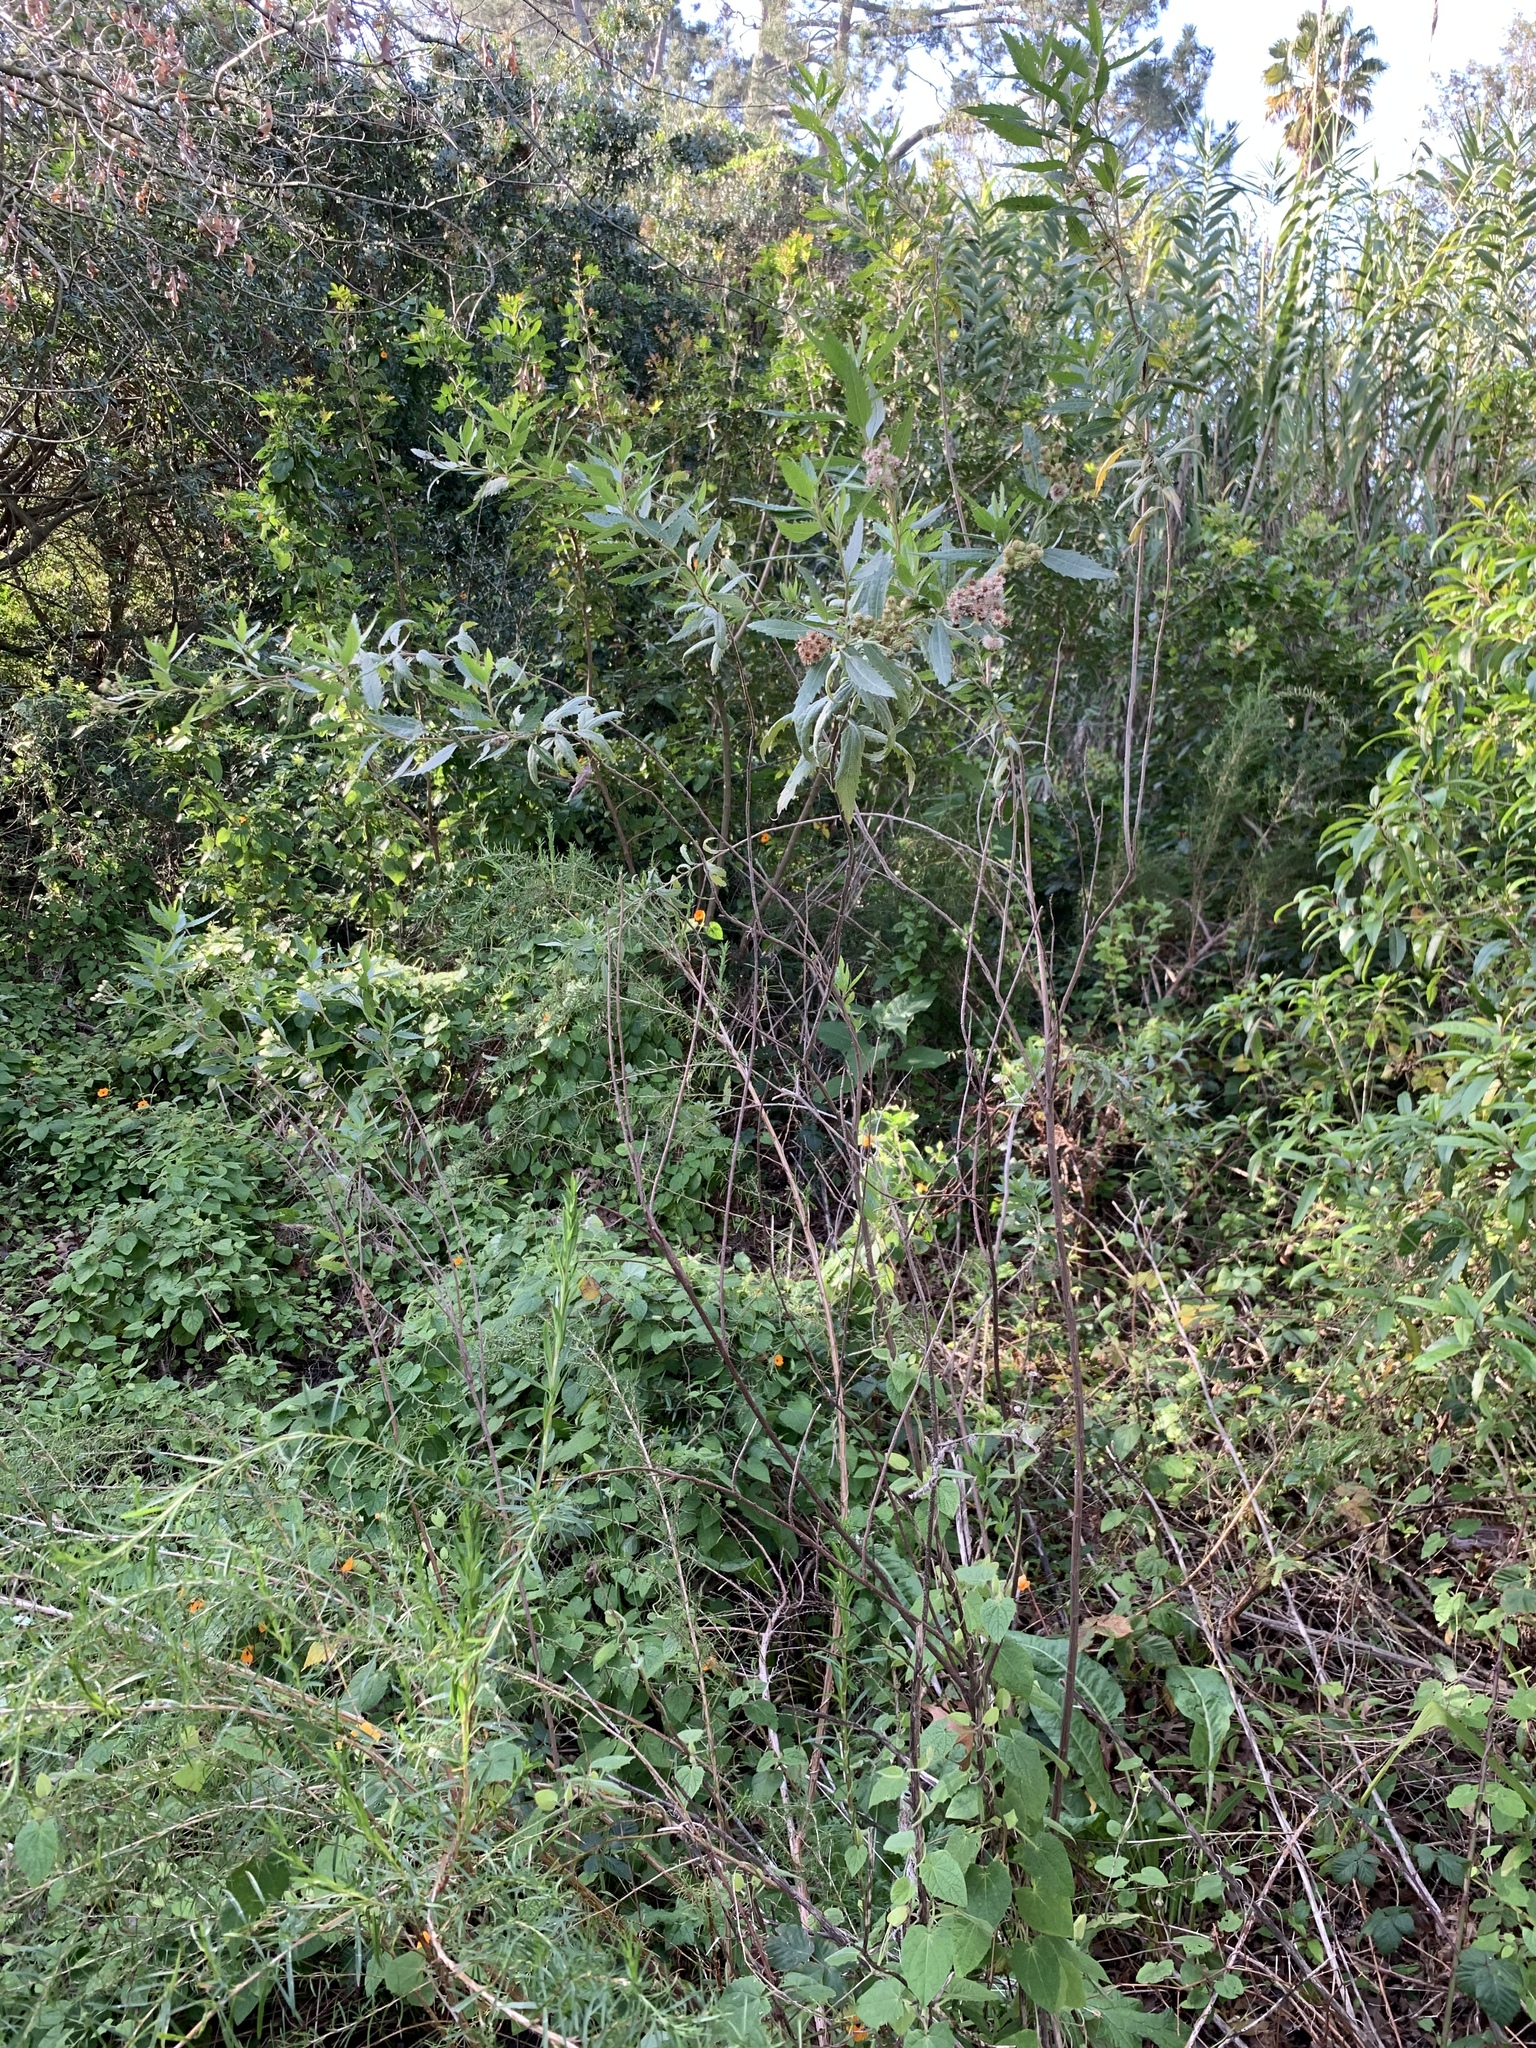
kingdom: Plantae
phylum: Tracheophyta
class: Magnoliopsida
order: Asterales
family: Asteraceae
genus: Nidorella
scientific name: Nidorella ivifolia
